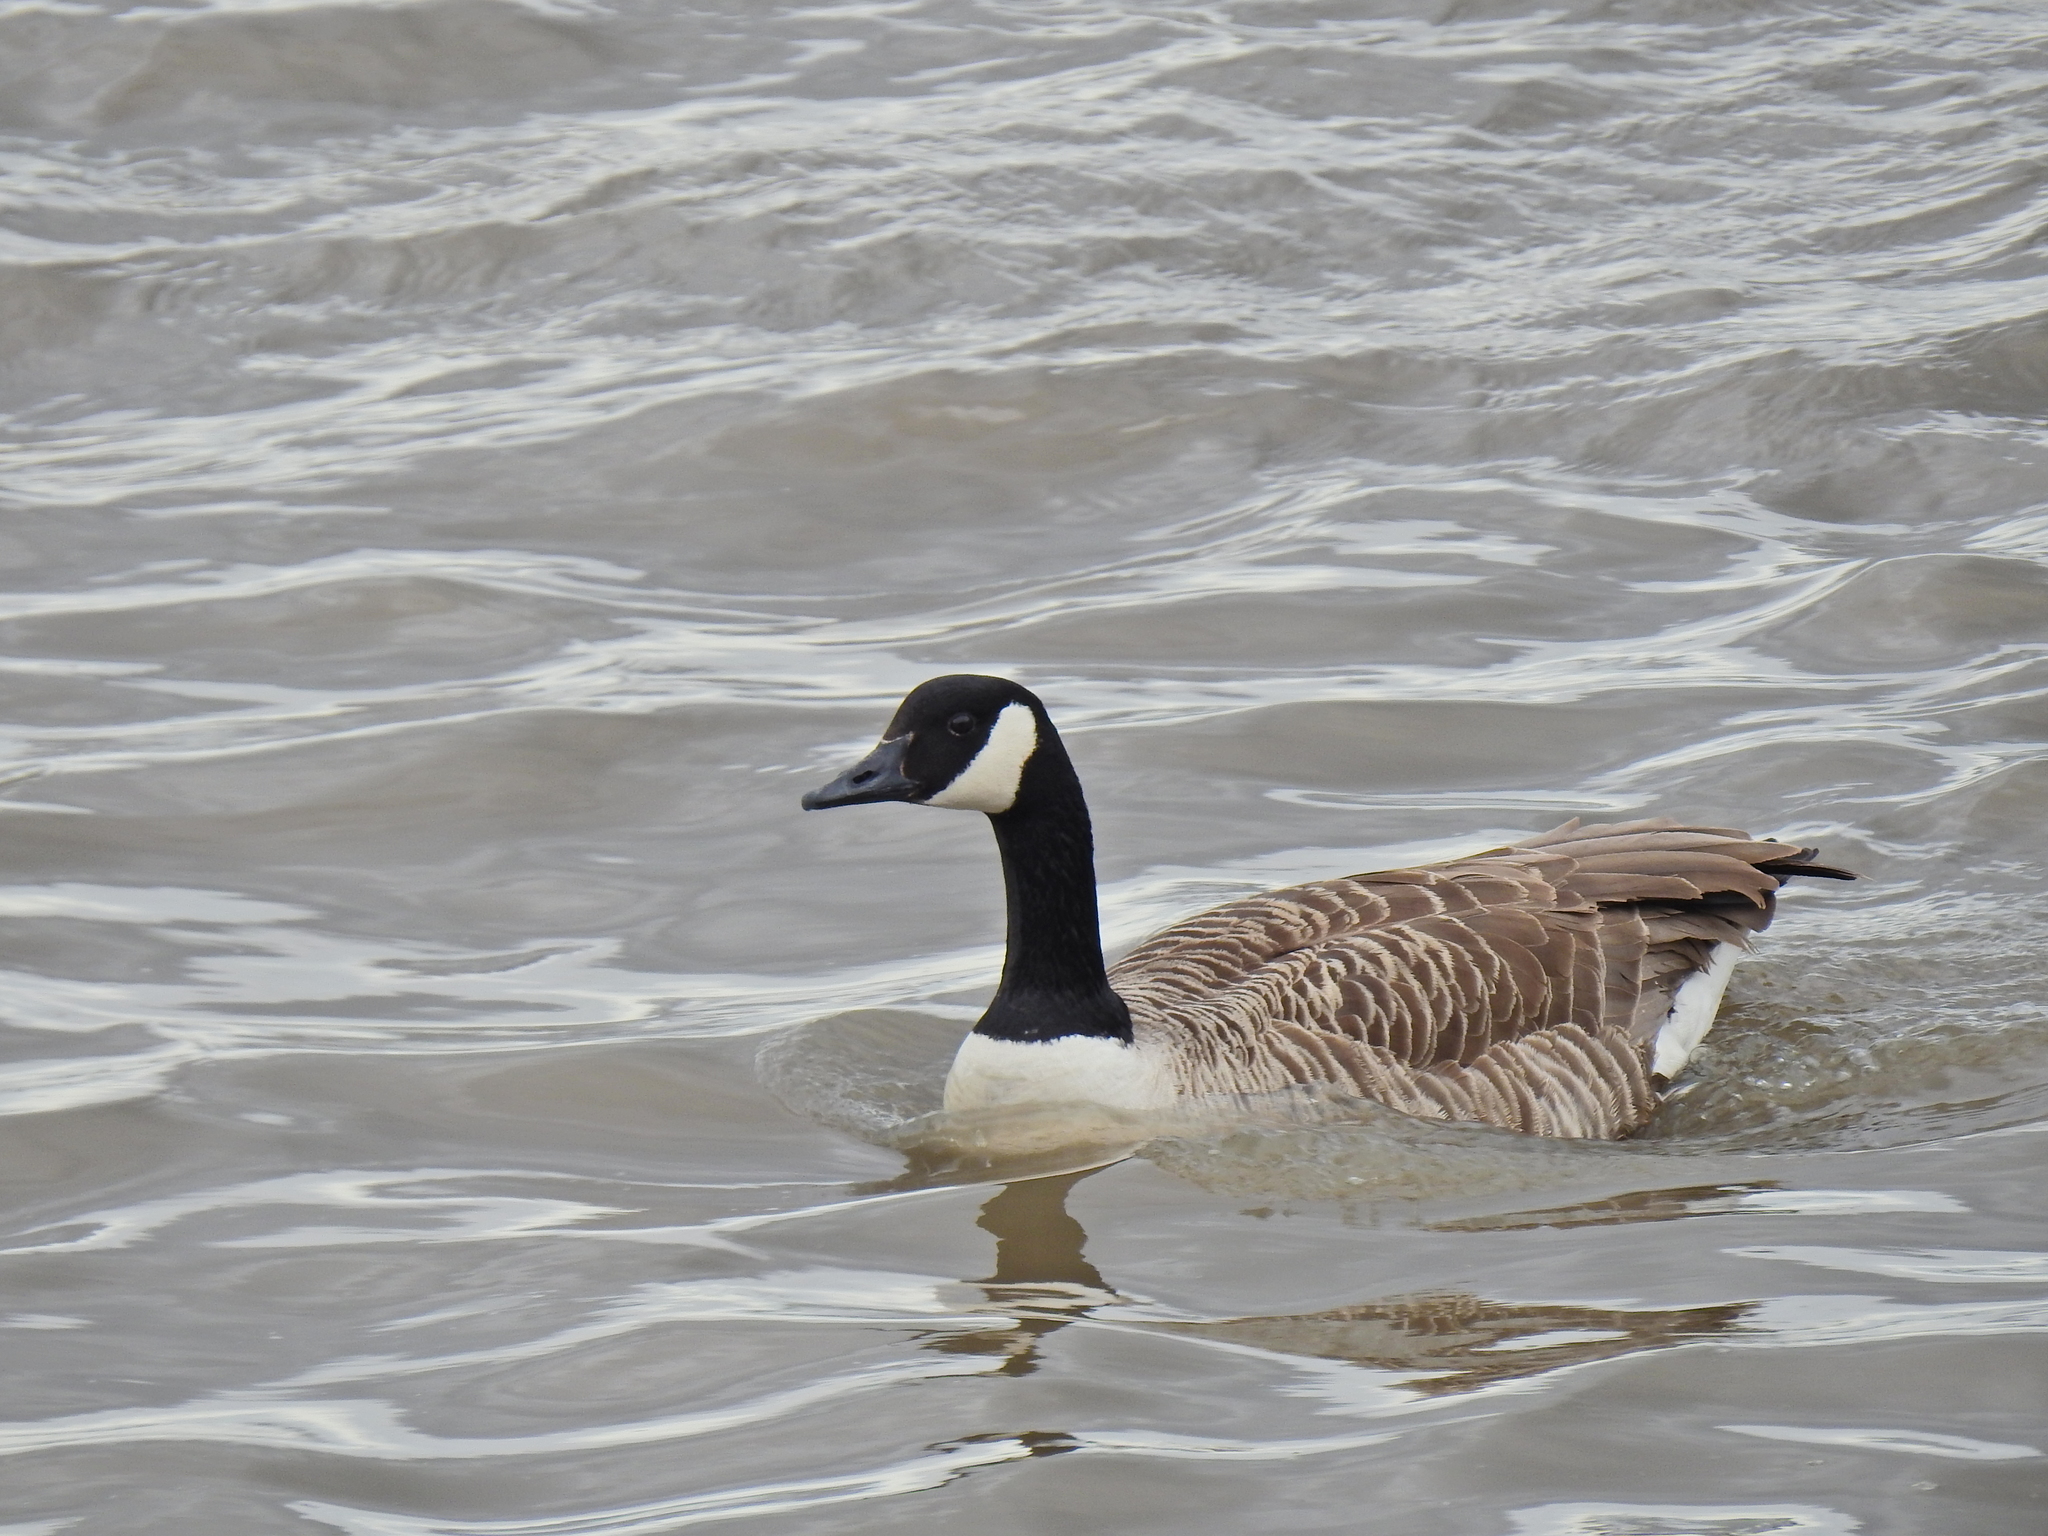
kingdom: Animalia
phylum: Chordata
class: Aves
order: Anseriformes
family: Anatidae
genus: Branta
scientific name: Branta canadensis
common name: Canada goose
